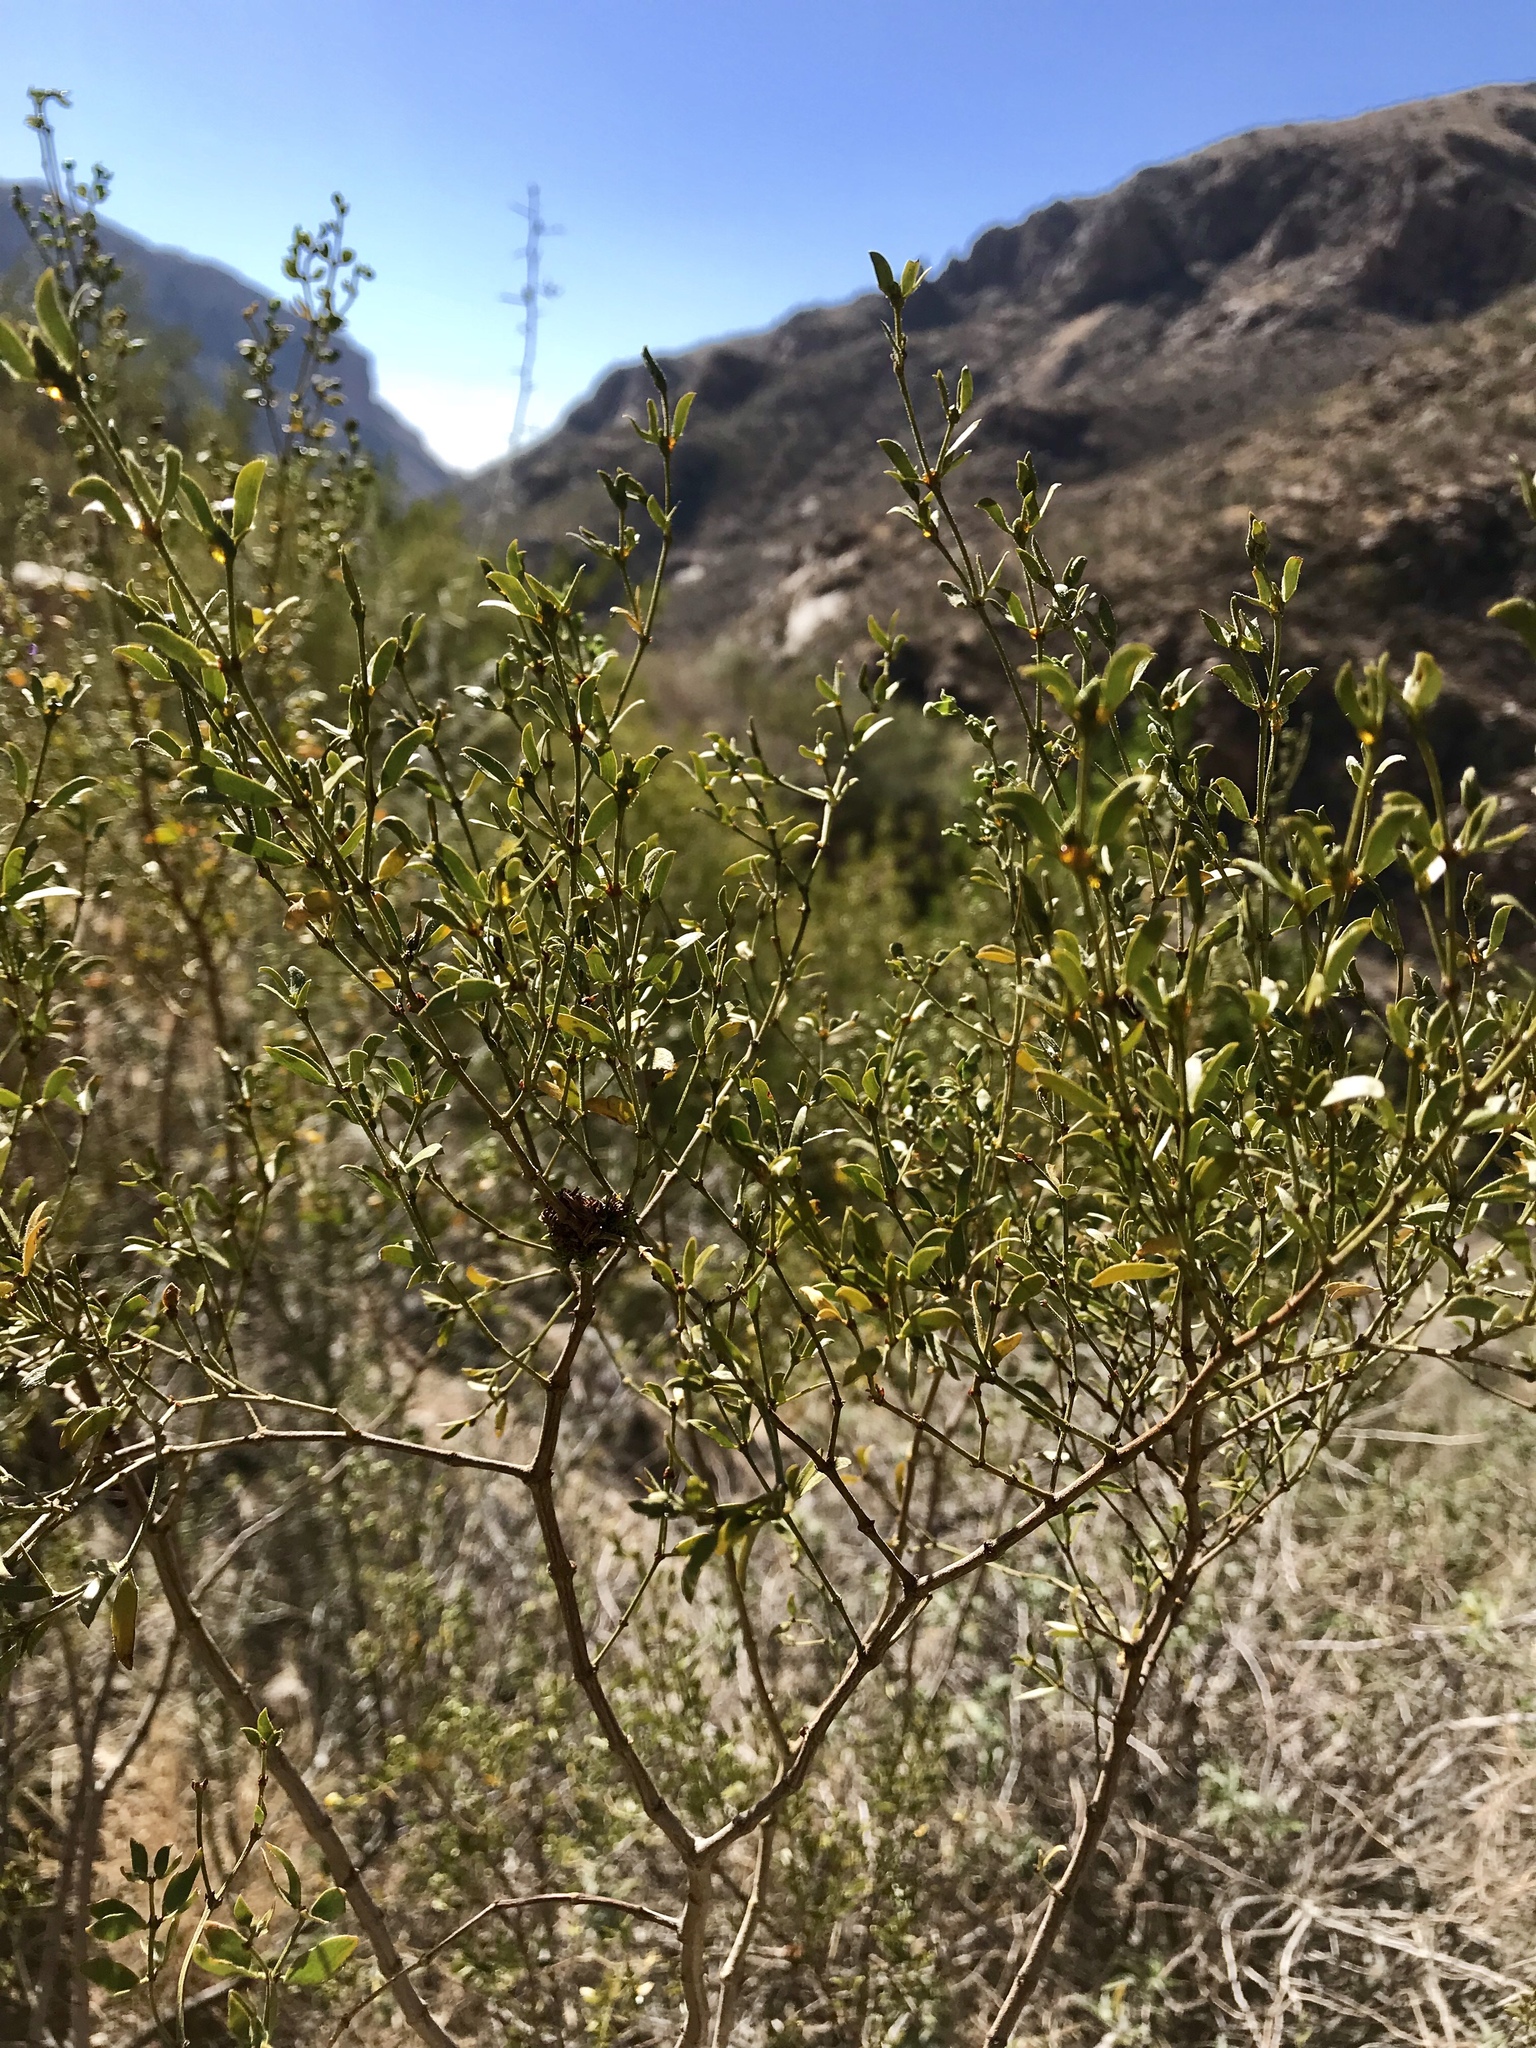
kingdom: Plantae
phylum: Tracheophyta
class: Magnoliopsida
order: Zygophyllales
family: Zygophyllaceae
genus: Larrea
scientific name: Larrea tridentata
